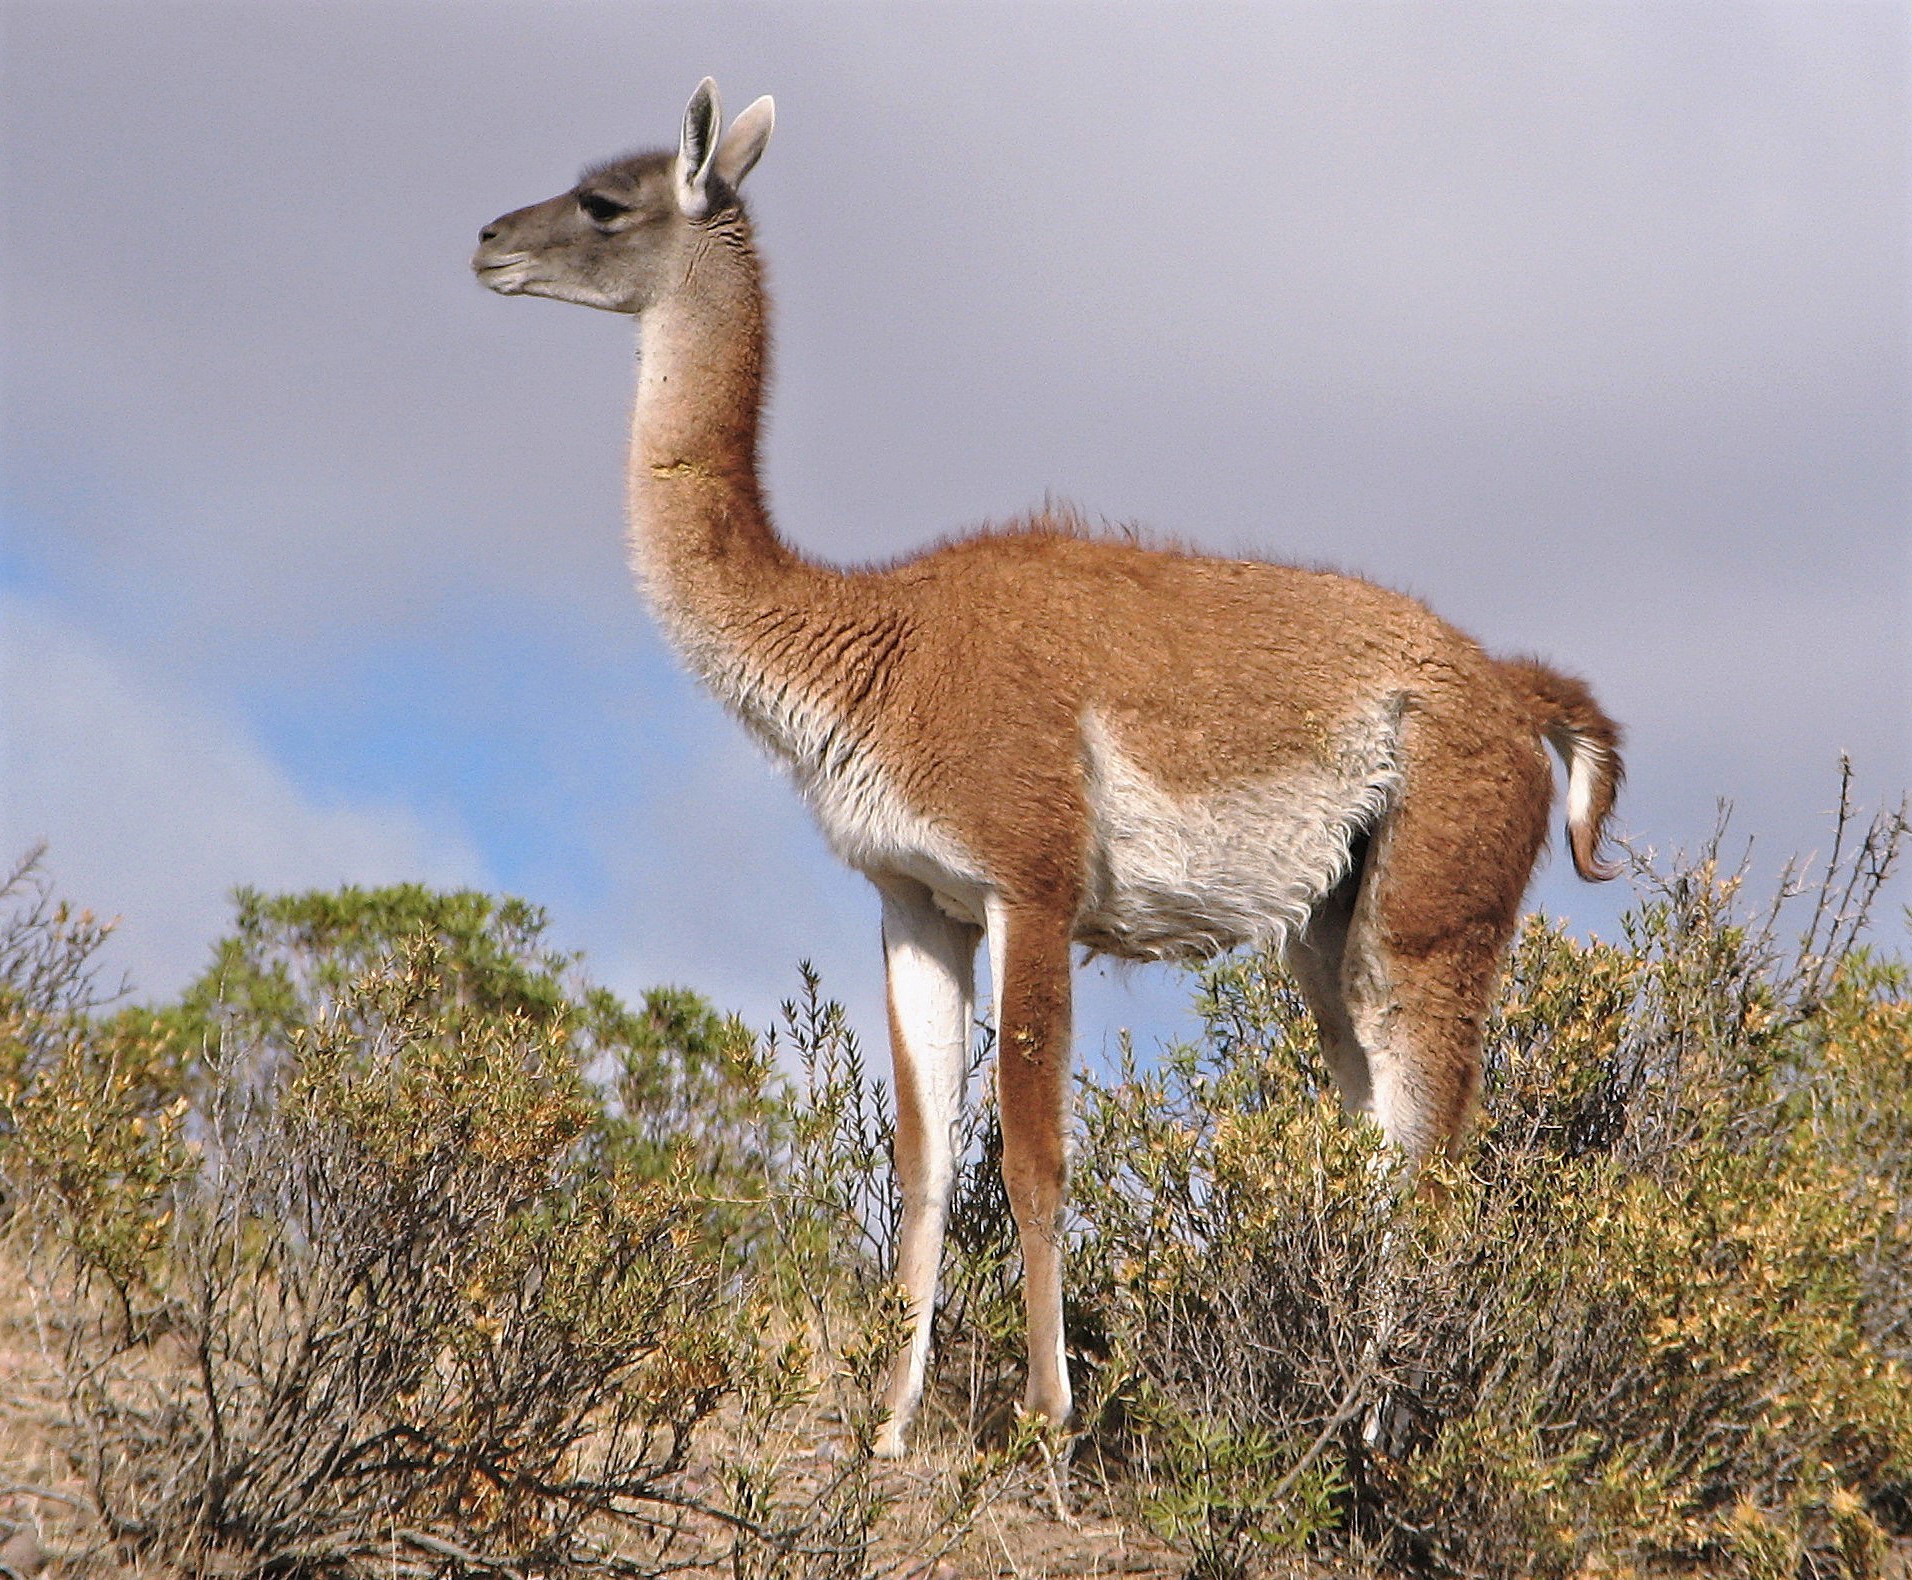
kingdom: Animalia
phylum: Chordata
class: Mammalia
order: Artiodactyla
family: Camelidae
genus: Lama
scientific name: Lama glama
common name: Llama
